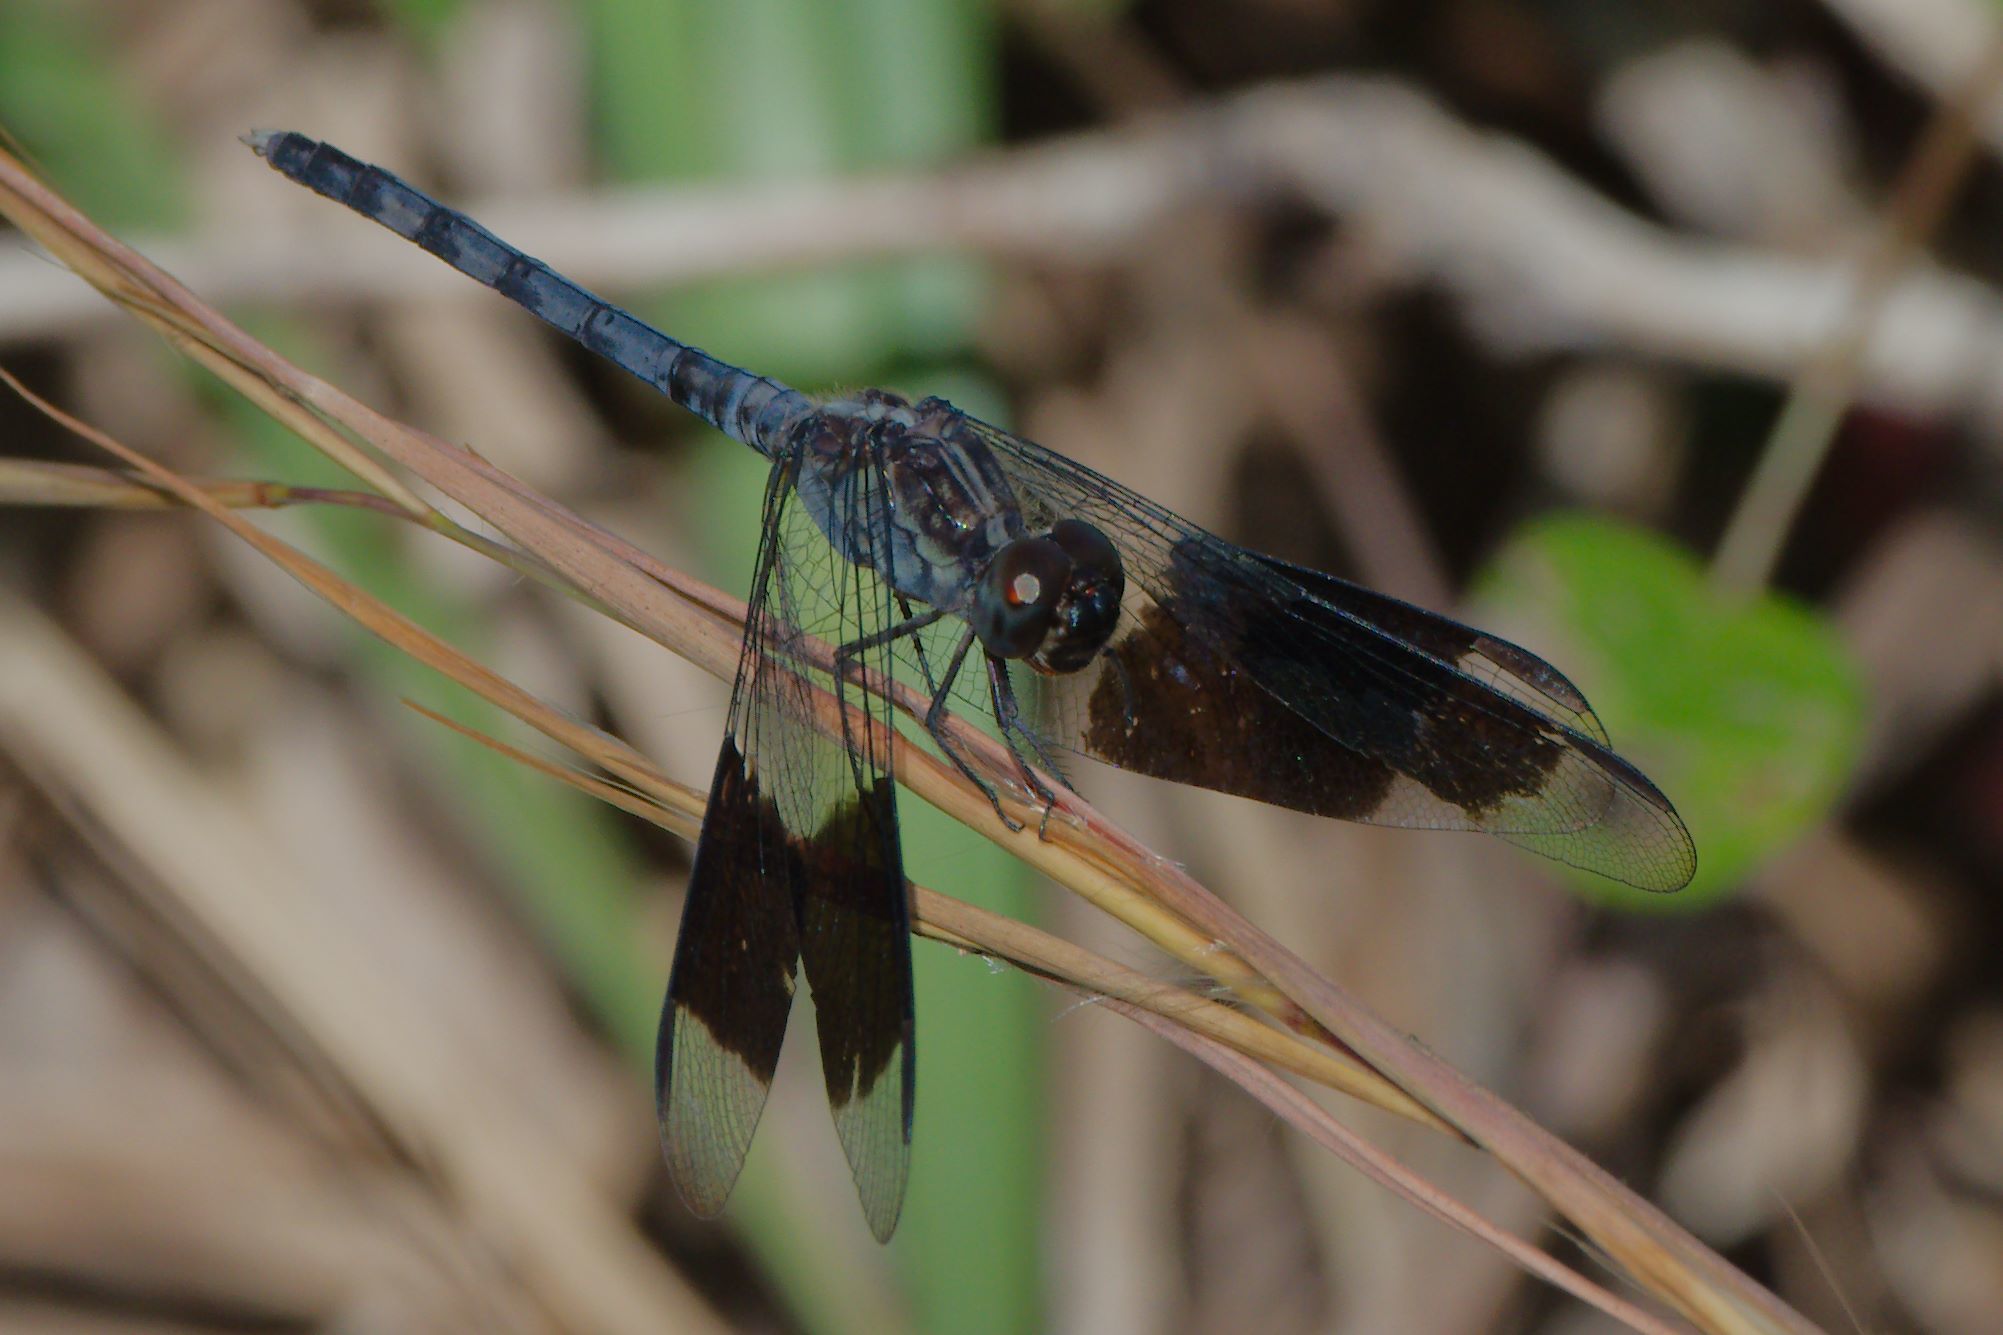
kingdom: Animalia
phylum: Arthropoda
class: Insecta
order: Odonata
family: Libellulidae
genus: Erythrodiplax
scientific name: Erythrodiplax umbrata
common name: Band-winged dragonlet
